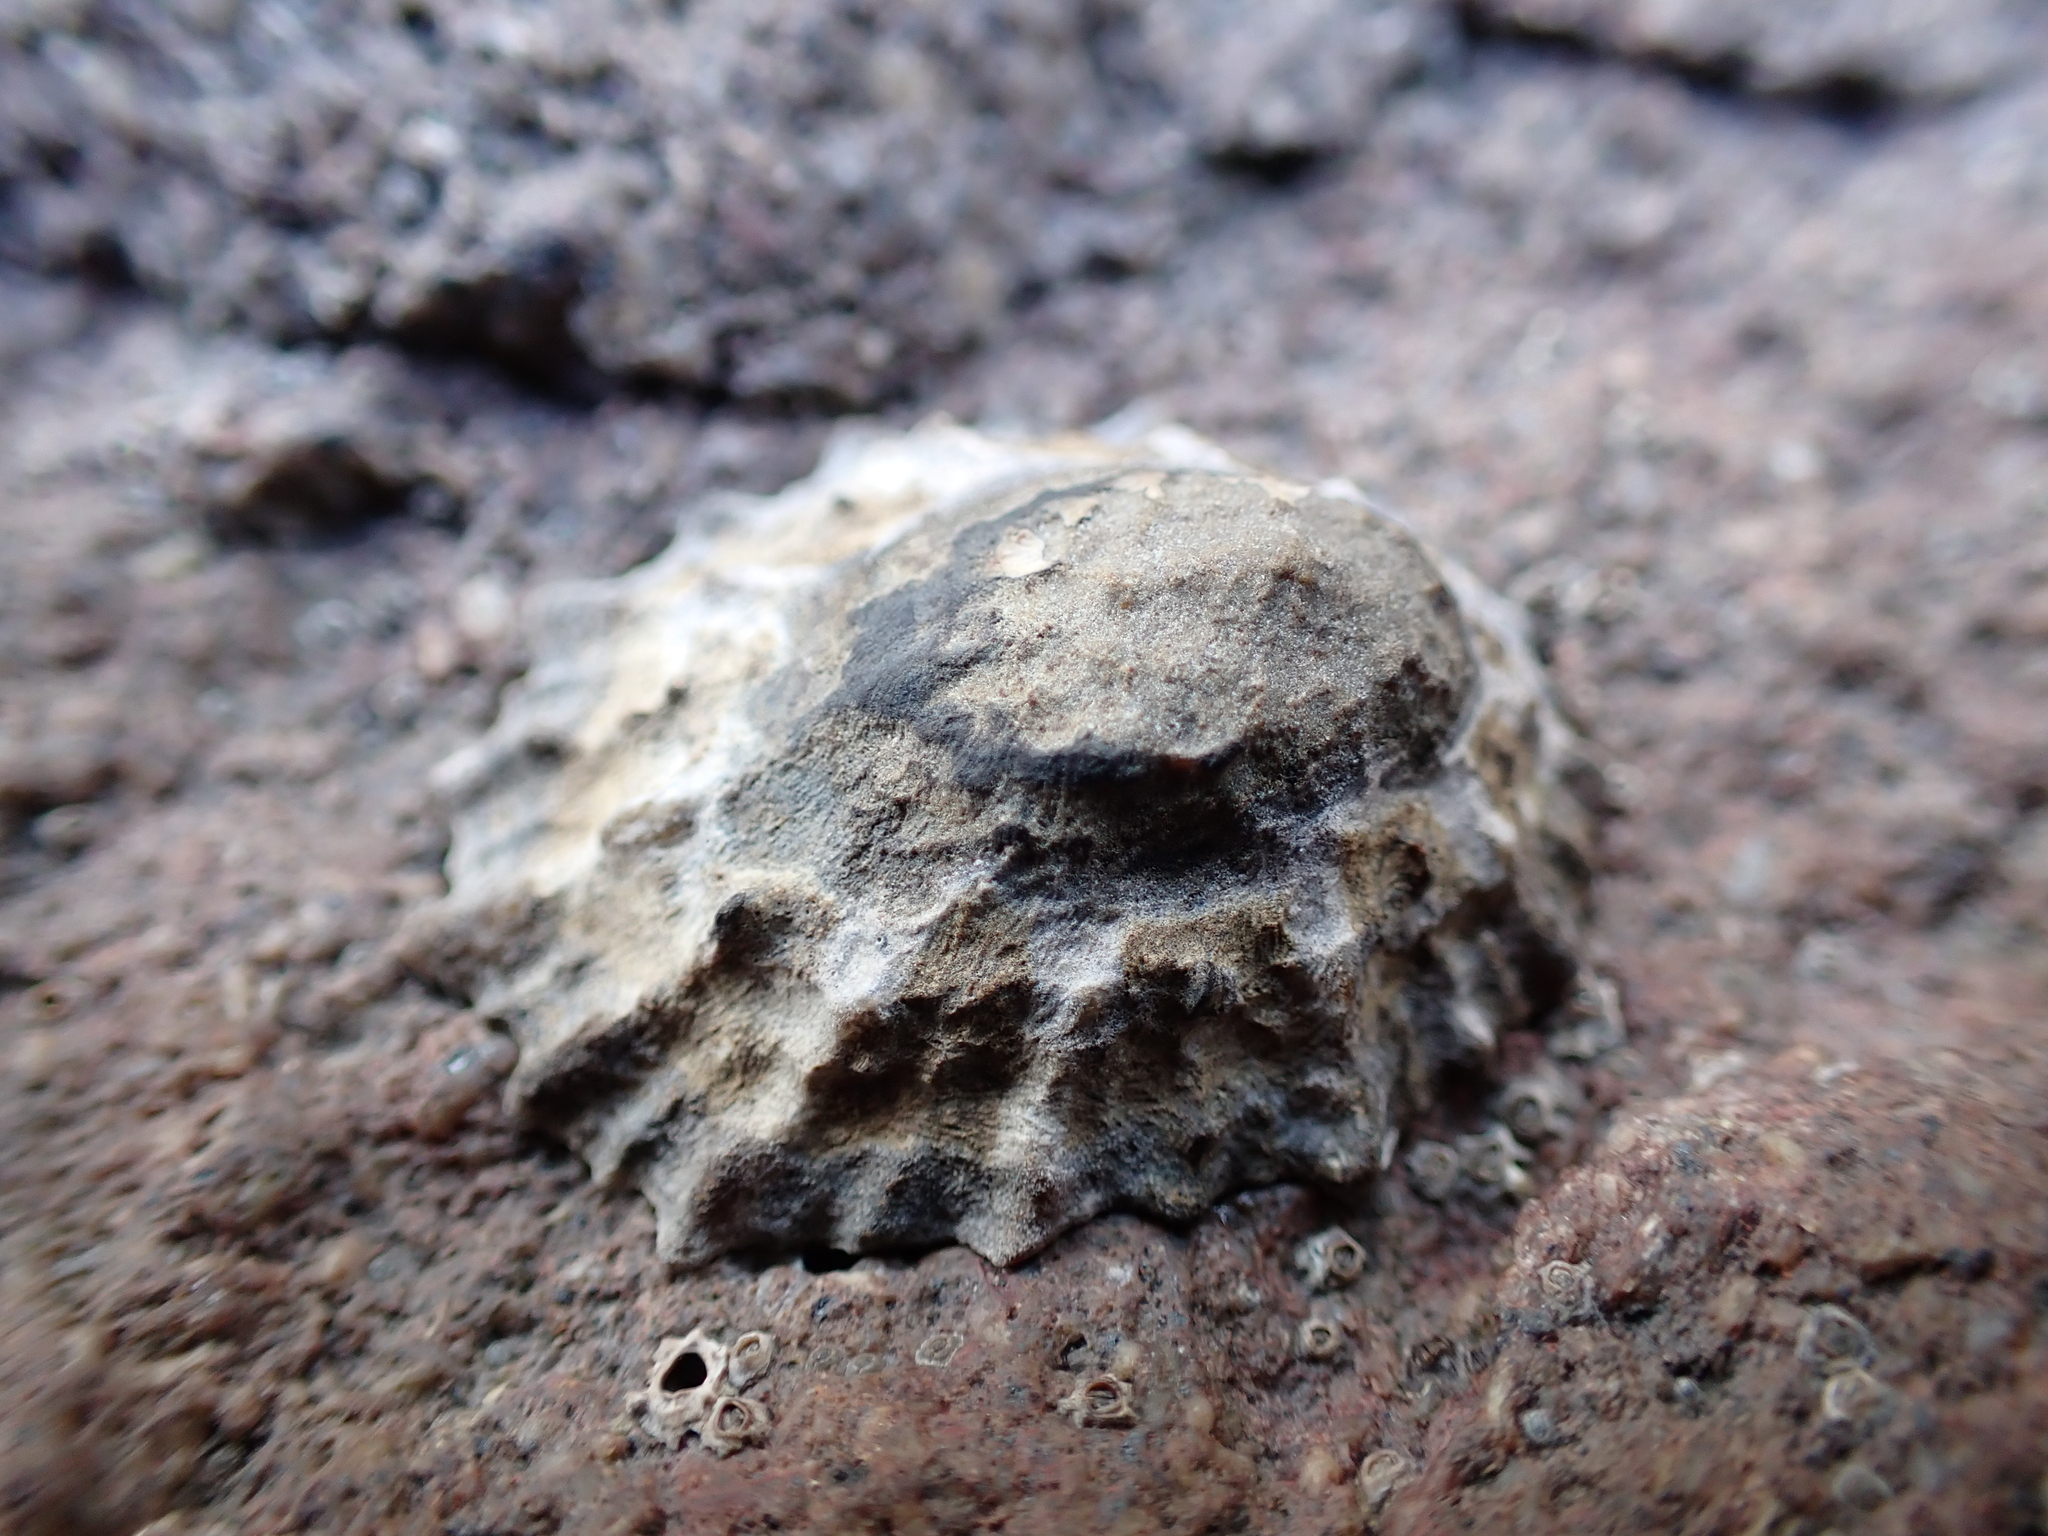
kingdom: Animalia
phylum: Mollusca
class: Gastropoda
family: Nacellidae
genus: Cellana
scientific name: Cellana ornata
